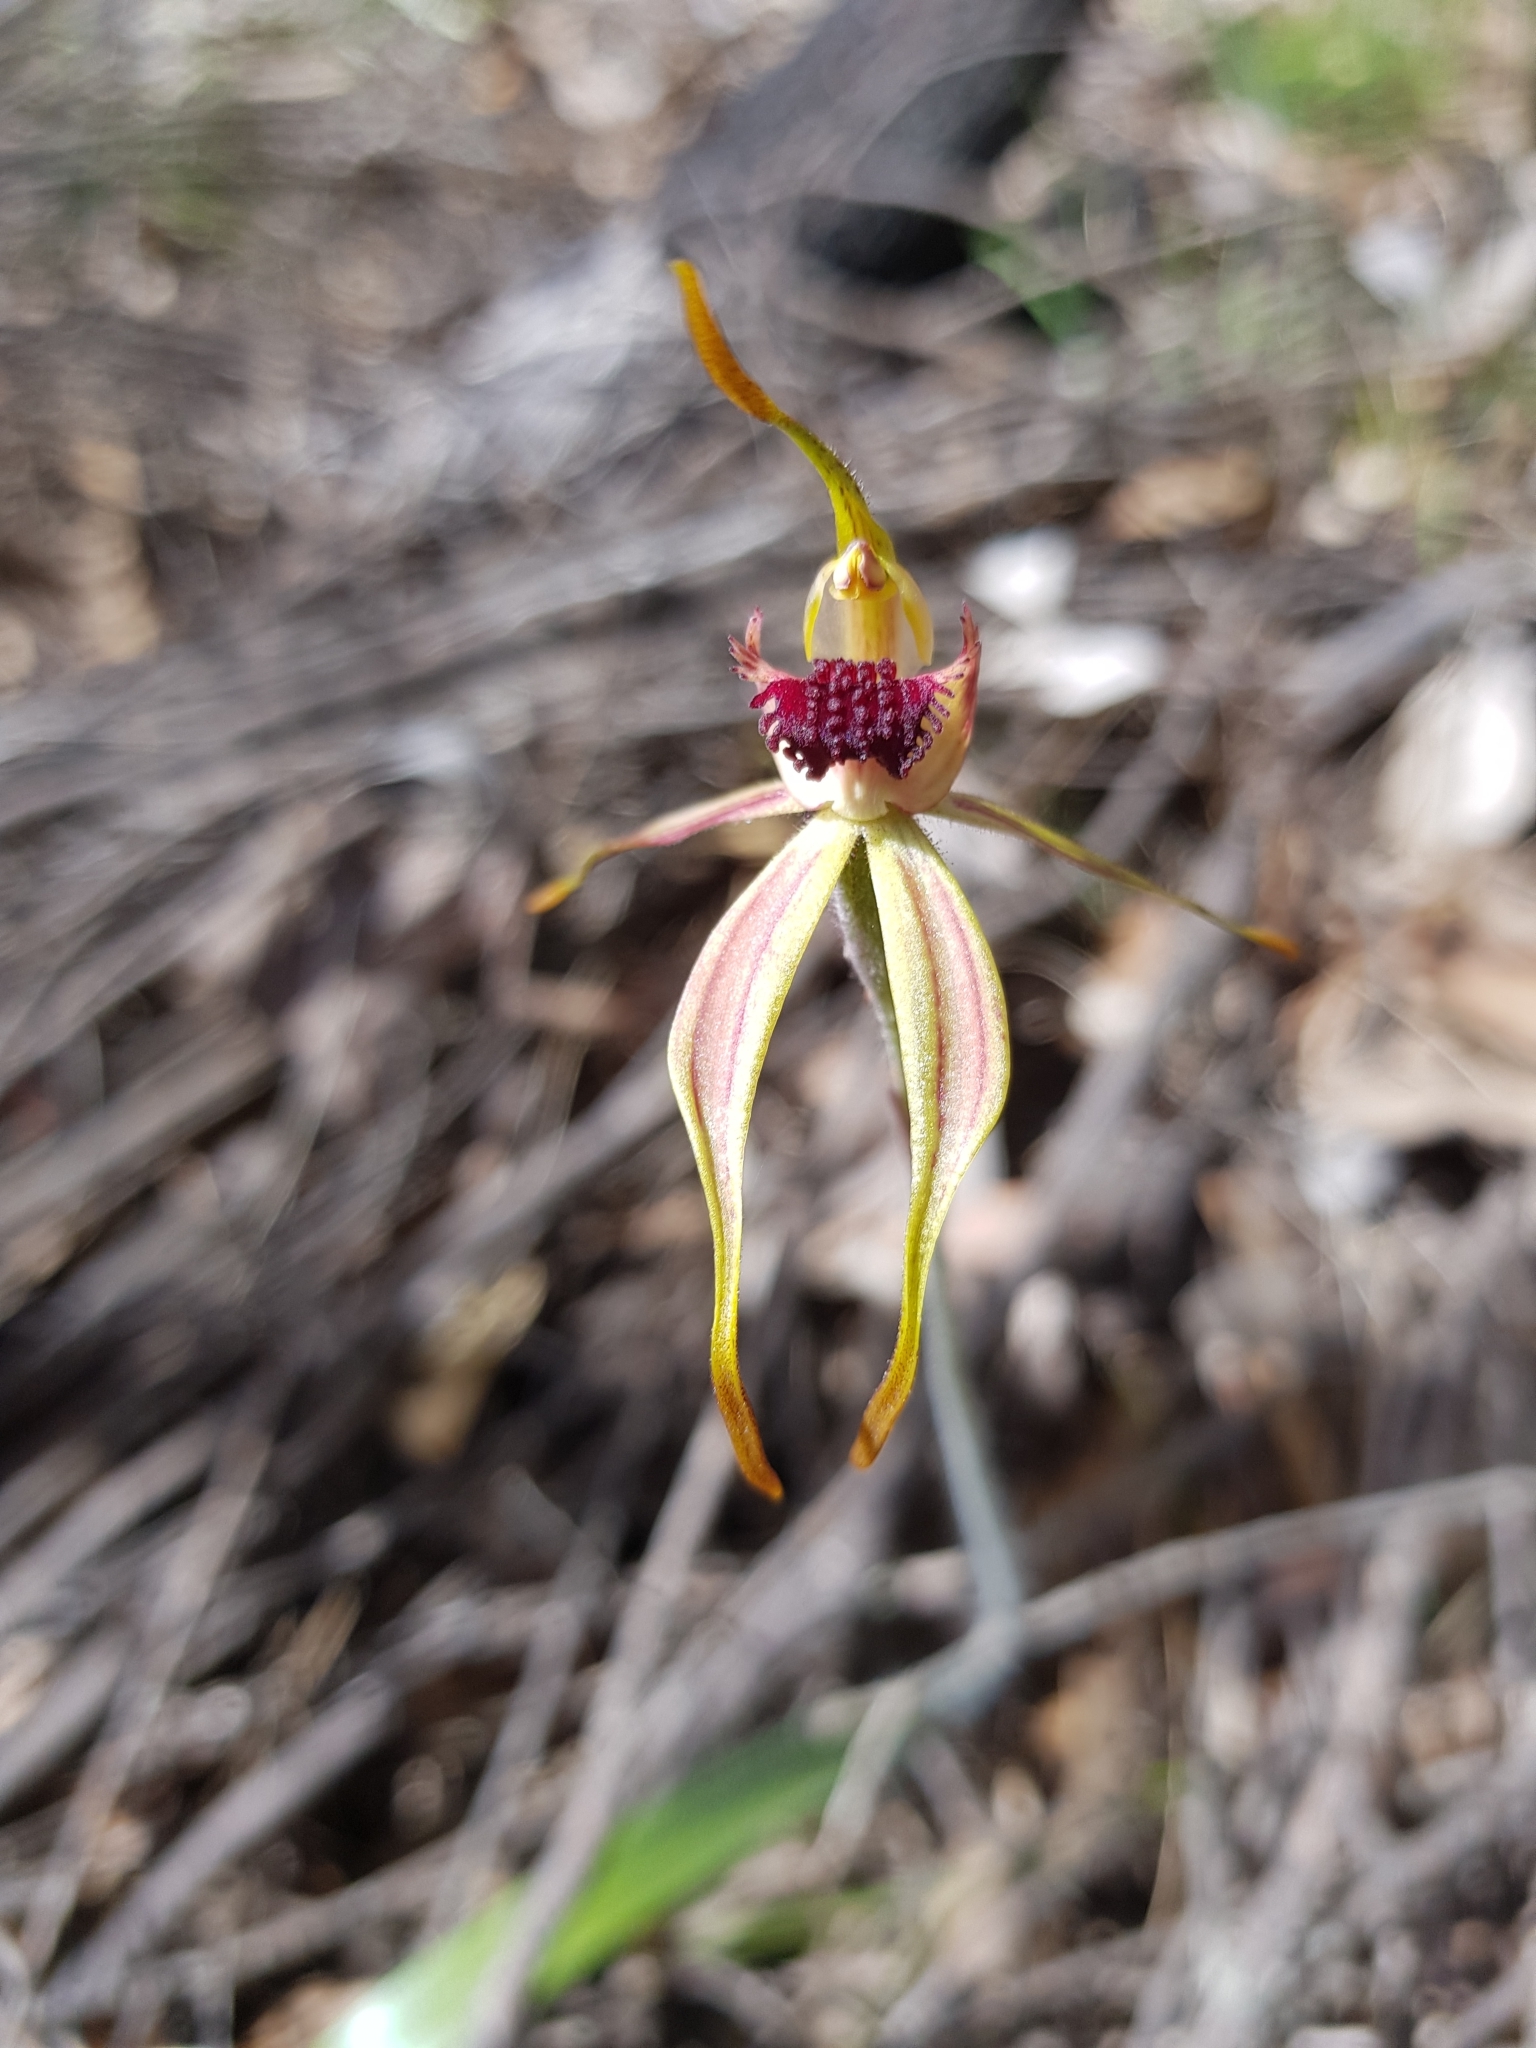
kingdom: Plantae
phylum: Tracheophyta
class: Liliopsida
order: Asparagales
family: Orchidaceae
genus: Caladenia
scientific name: Caladenia ensata
